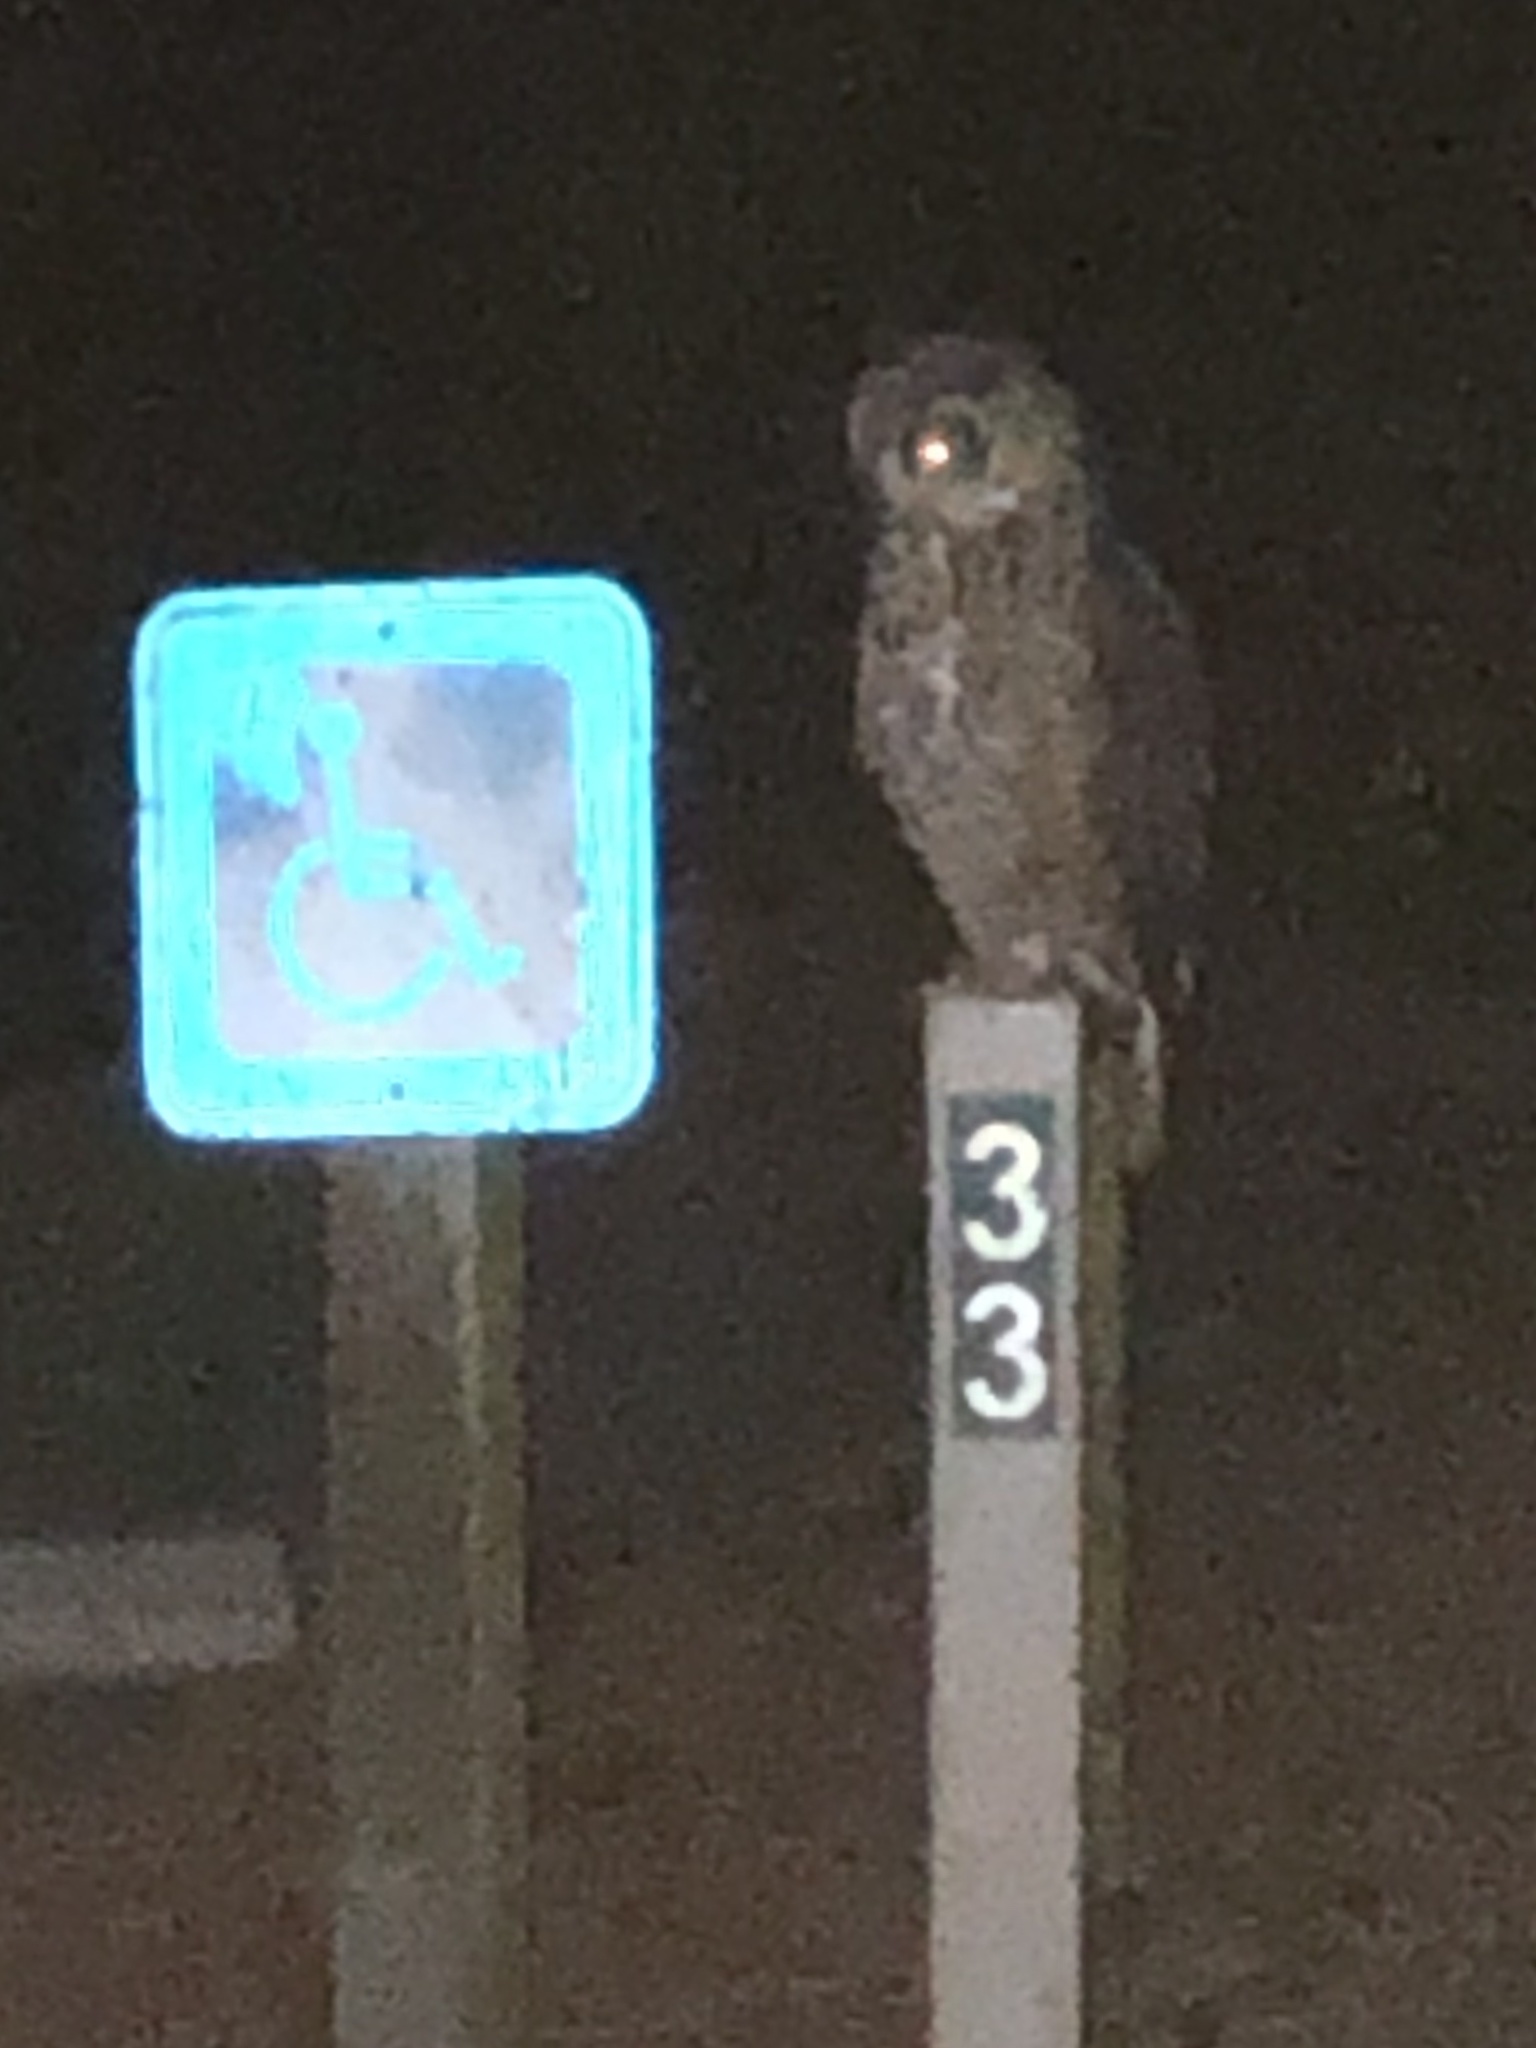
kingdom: Animalia
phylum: Chordata
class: Aves
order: Strigiformes
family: Strigidae
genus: Bubo
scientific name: Bubo virginianus
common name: Great horned owl
